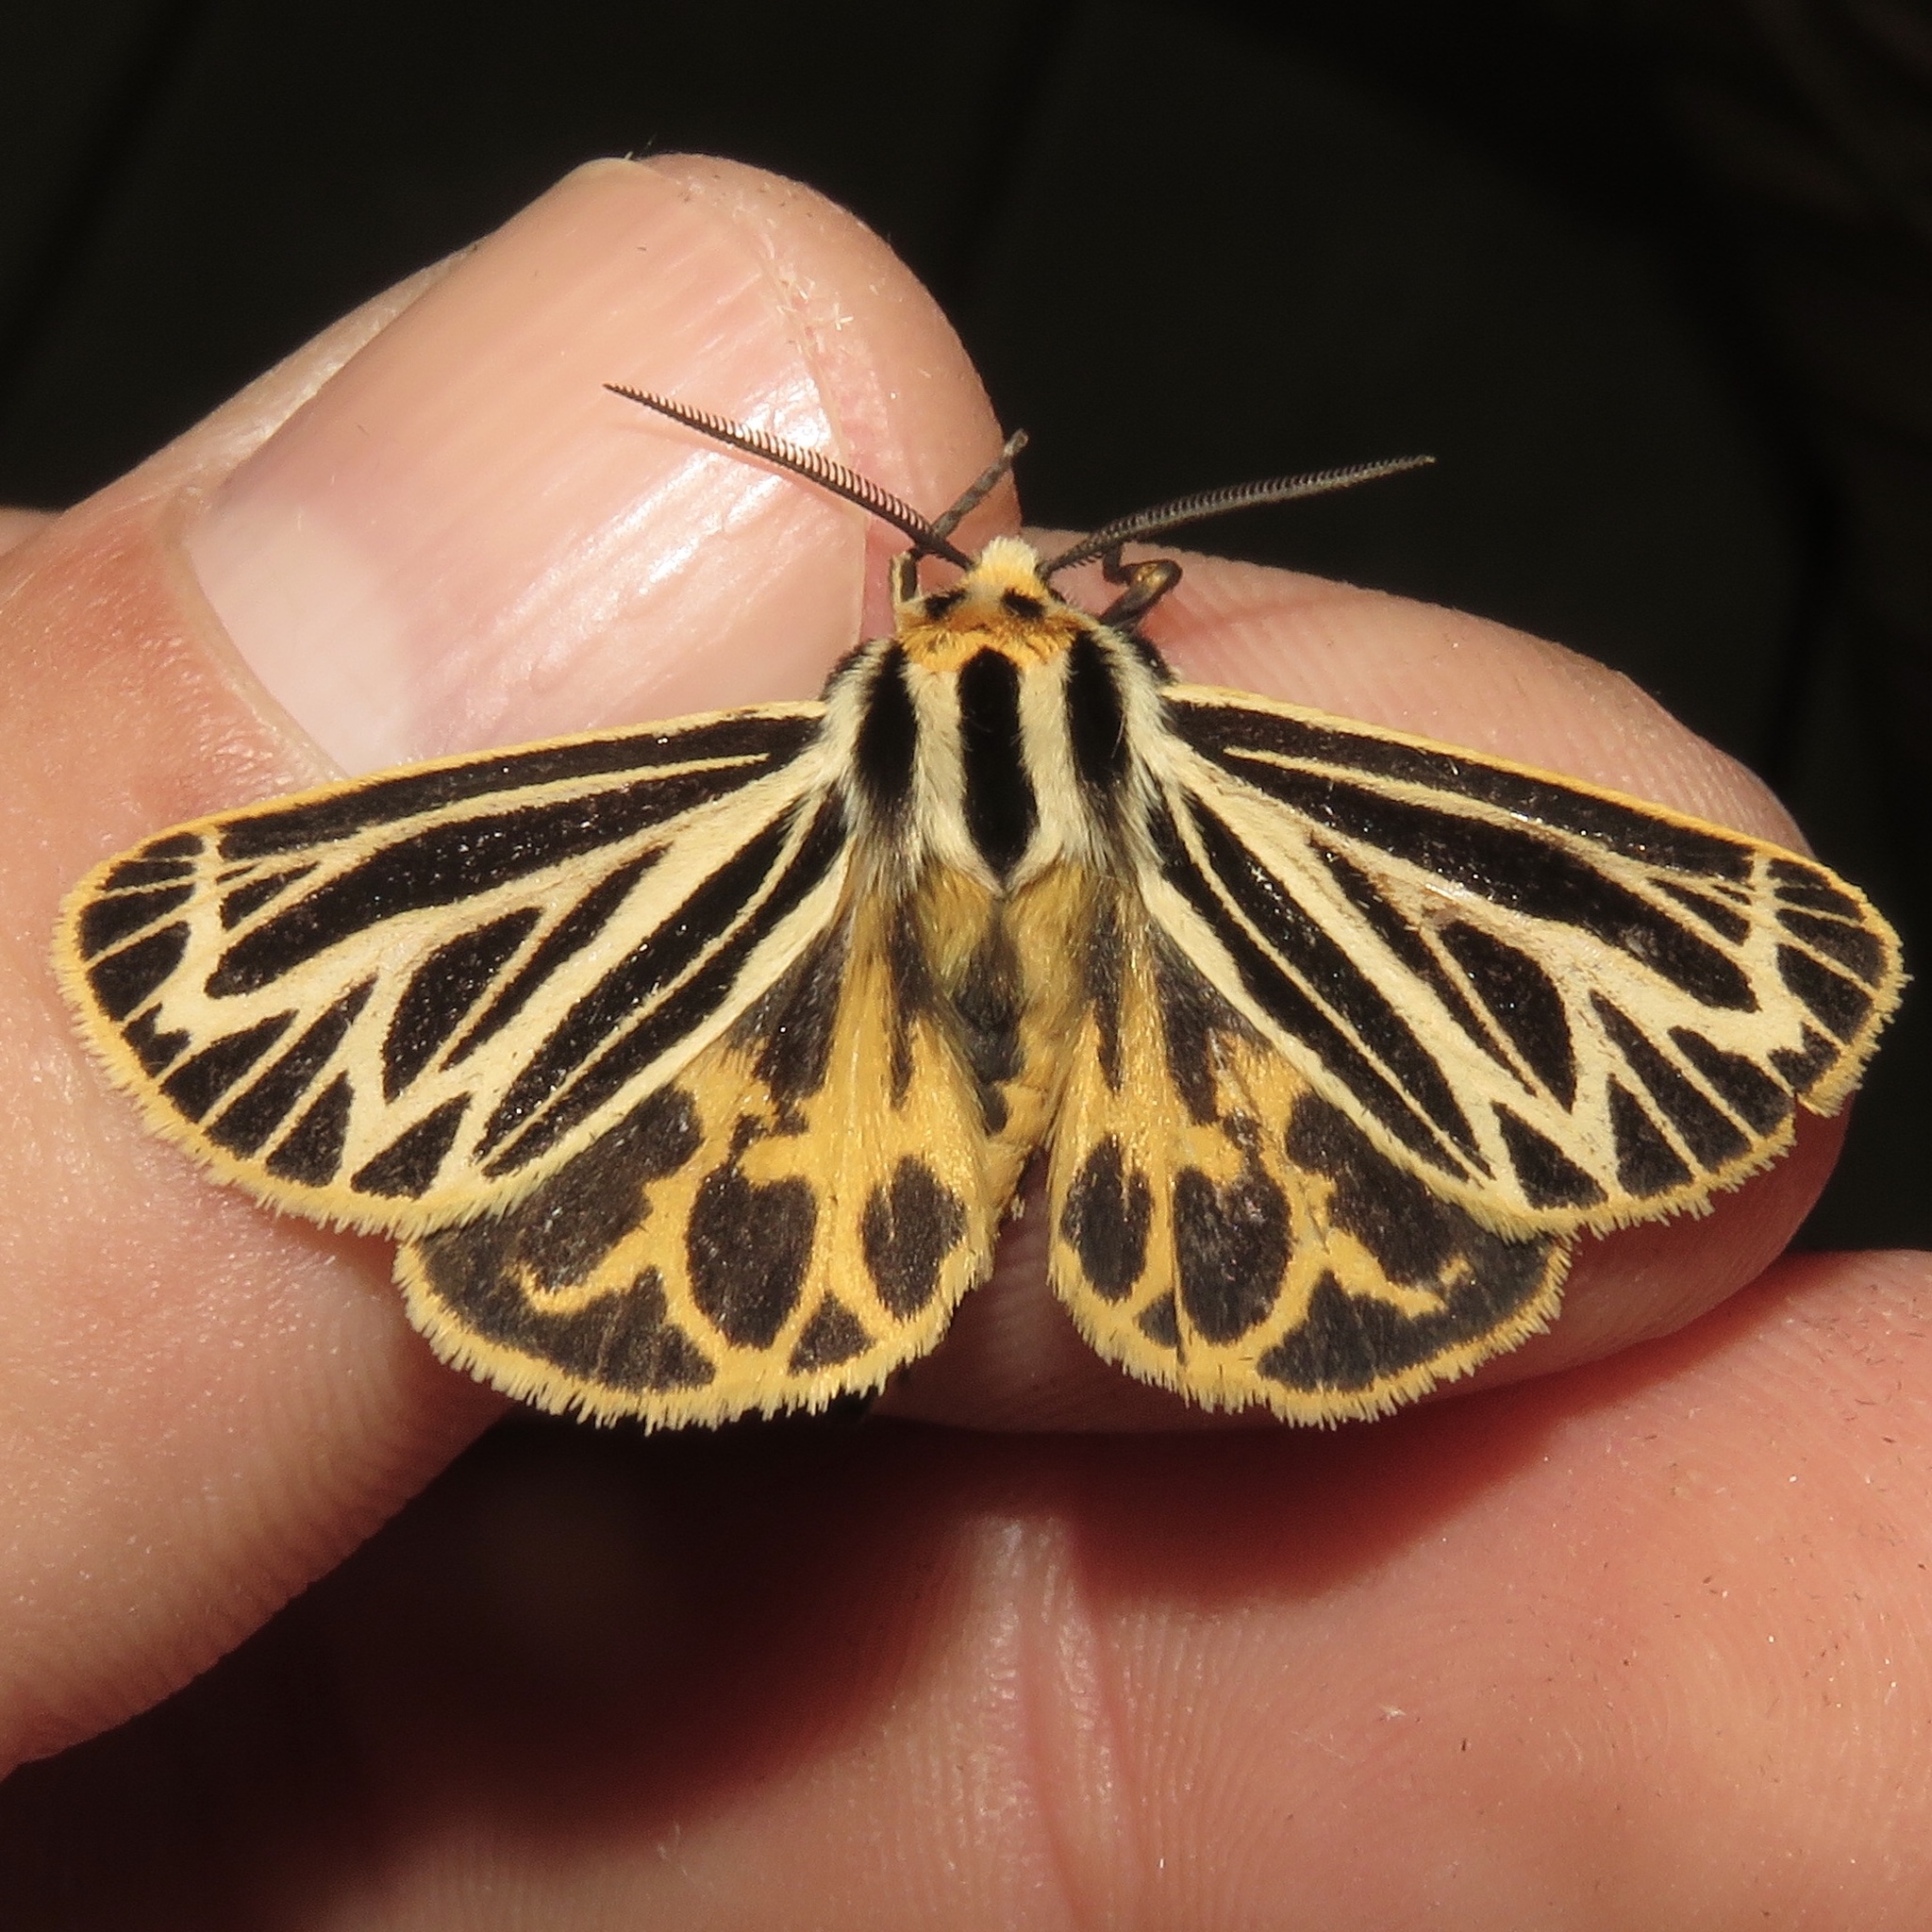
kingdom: Animalia
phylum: Arthropoda
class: Insecta
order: Lepidoptera
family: Erebidae
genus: Grammia
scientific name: Grammia virguncula
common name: Little tiger moth
